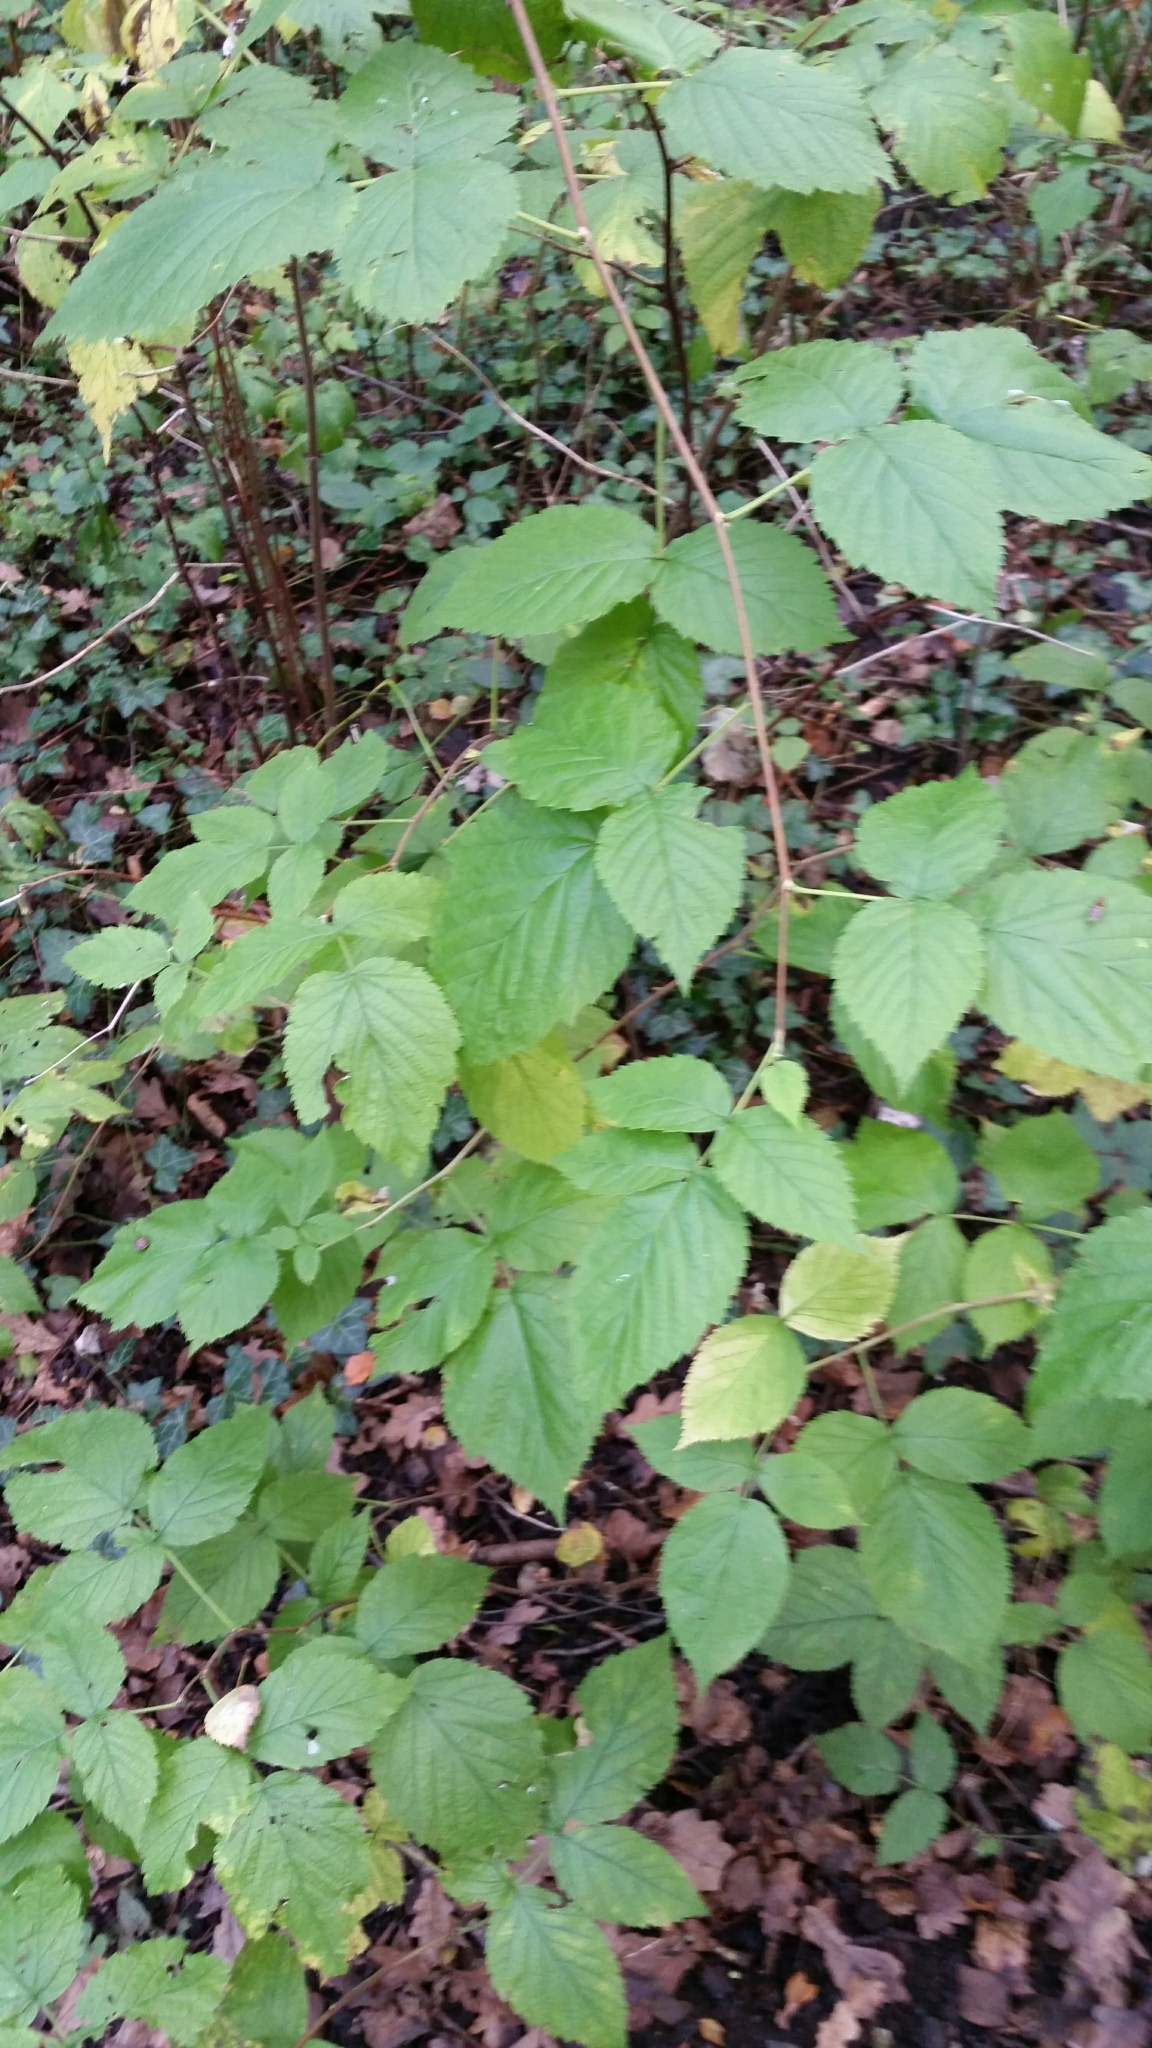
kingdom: Plantae
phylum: Tracheophyta
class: Magnoliopsida
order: Rosales
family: Rosaceae
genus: Rubus
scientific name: Rubus idaeus
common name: Raspberry
